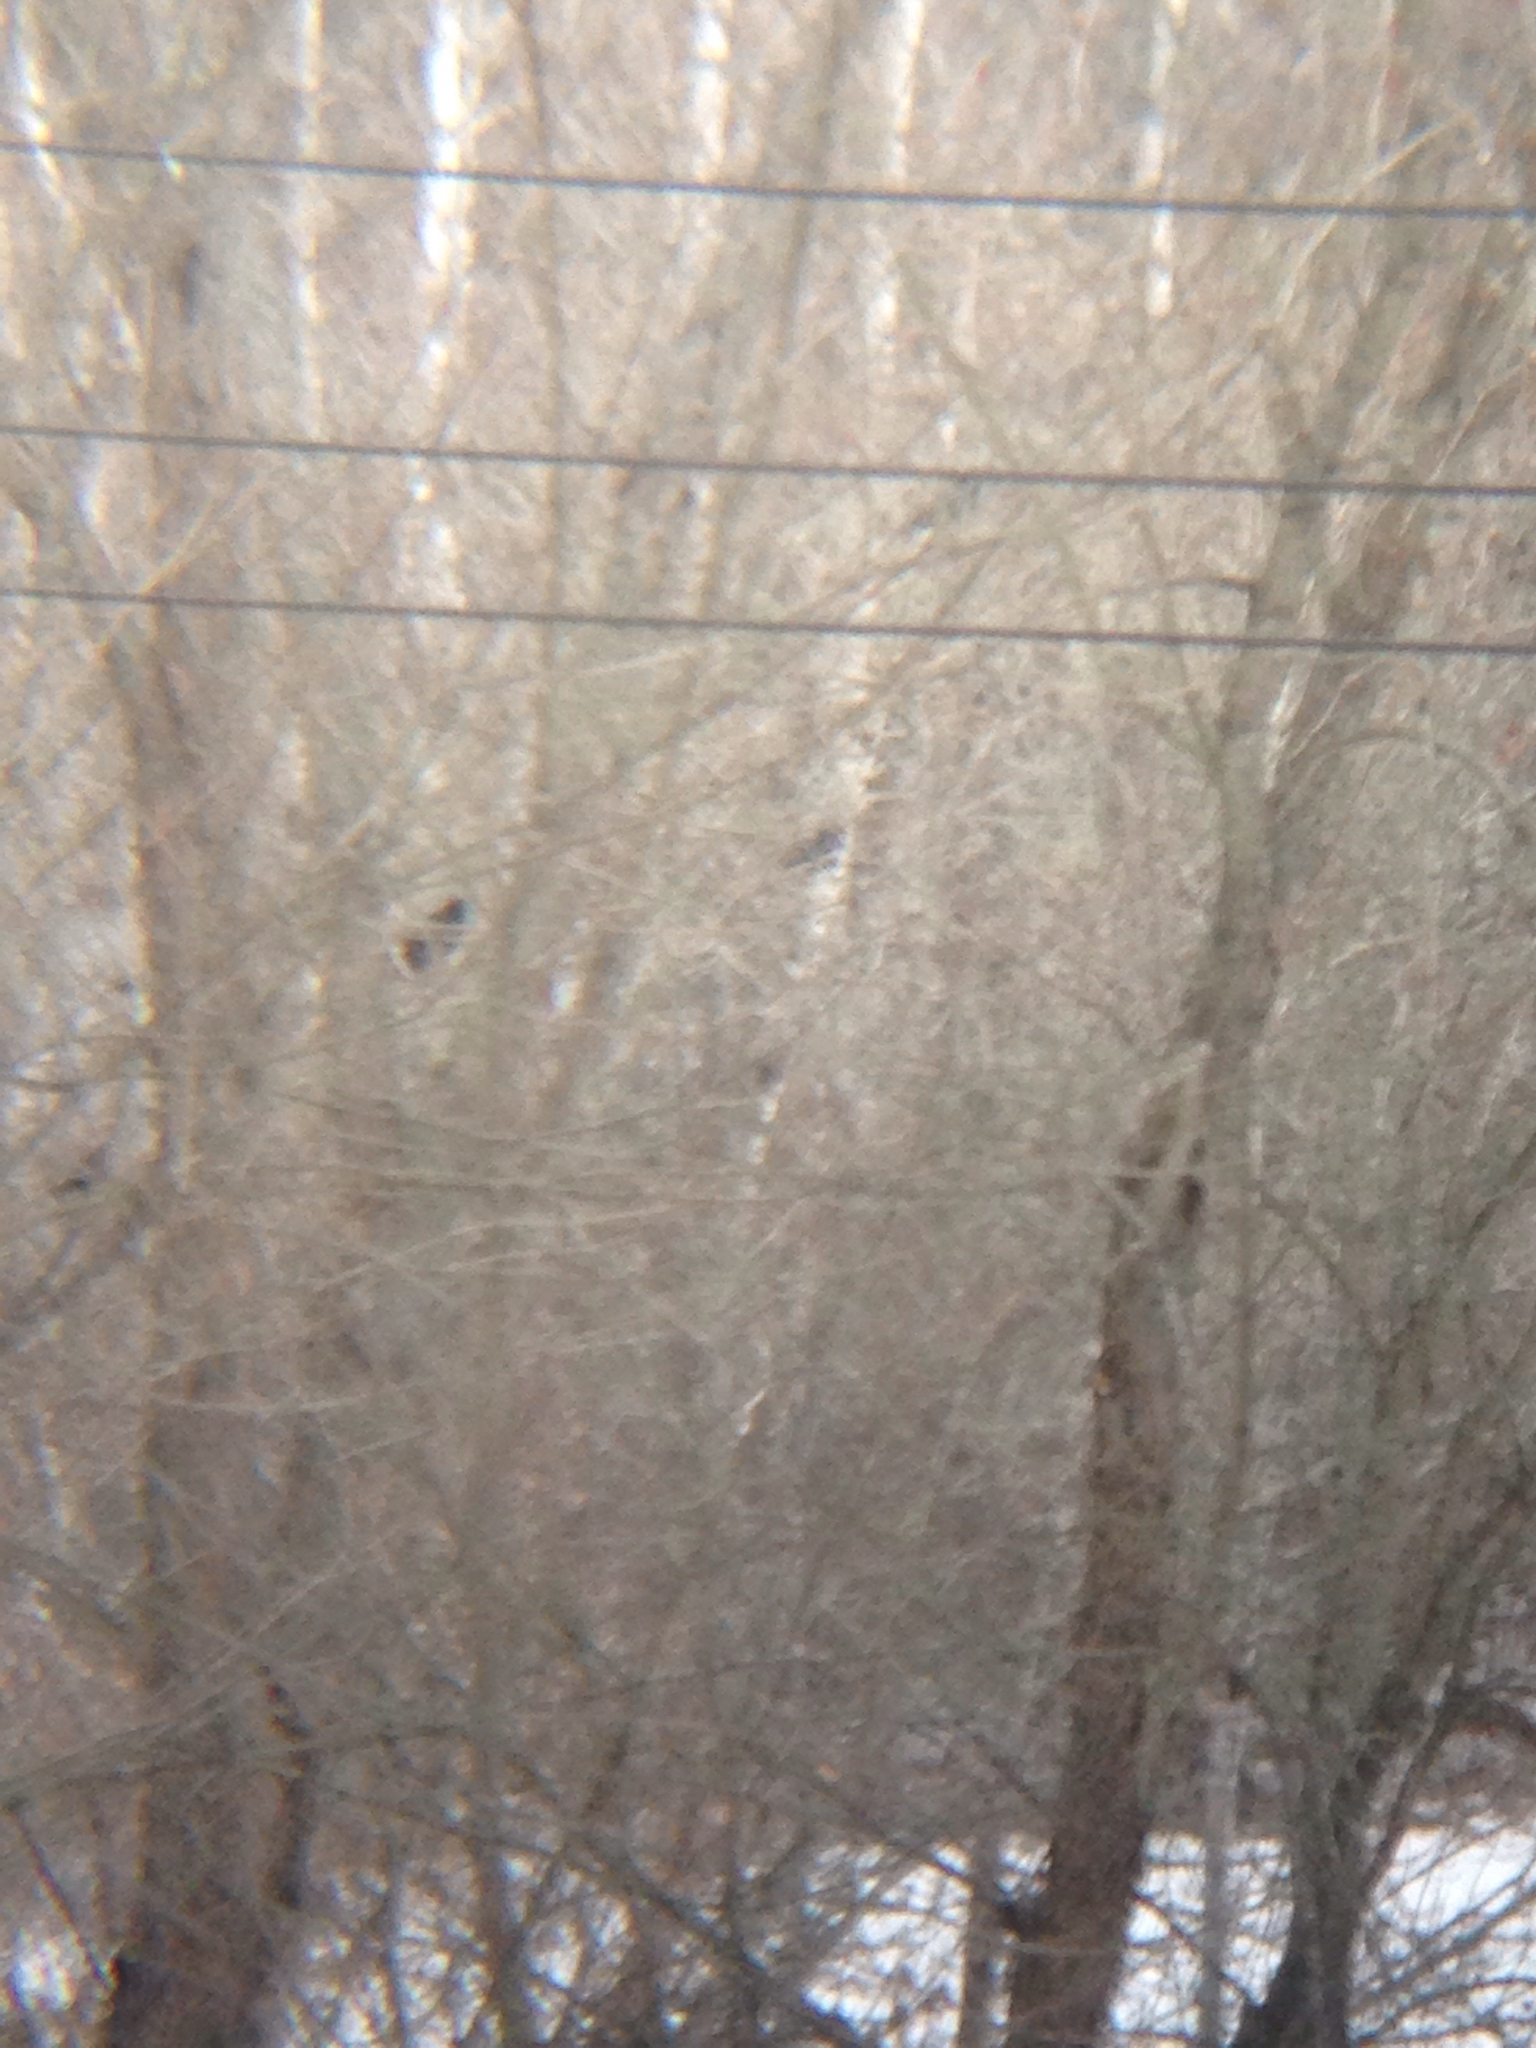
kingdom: Animalia
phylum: Chordata
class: Aves
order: Passeriformes
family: Corvidae
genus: Corvus
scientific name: Corvus brachyrhynchos
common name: American crow
